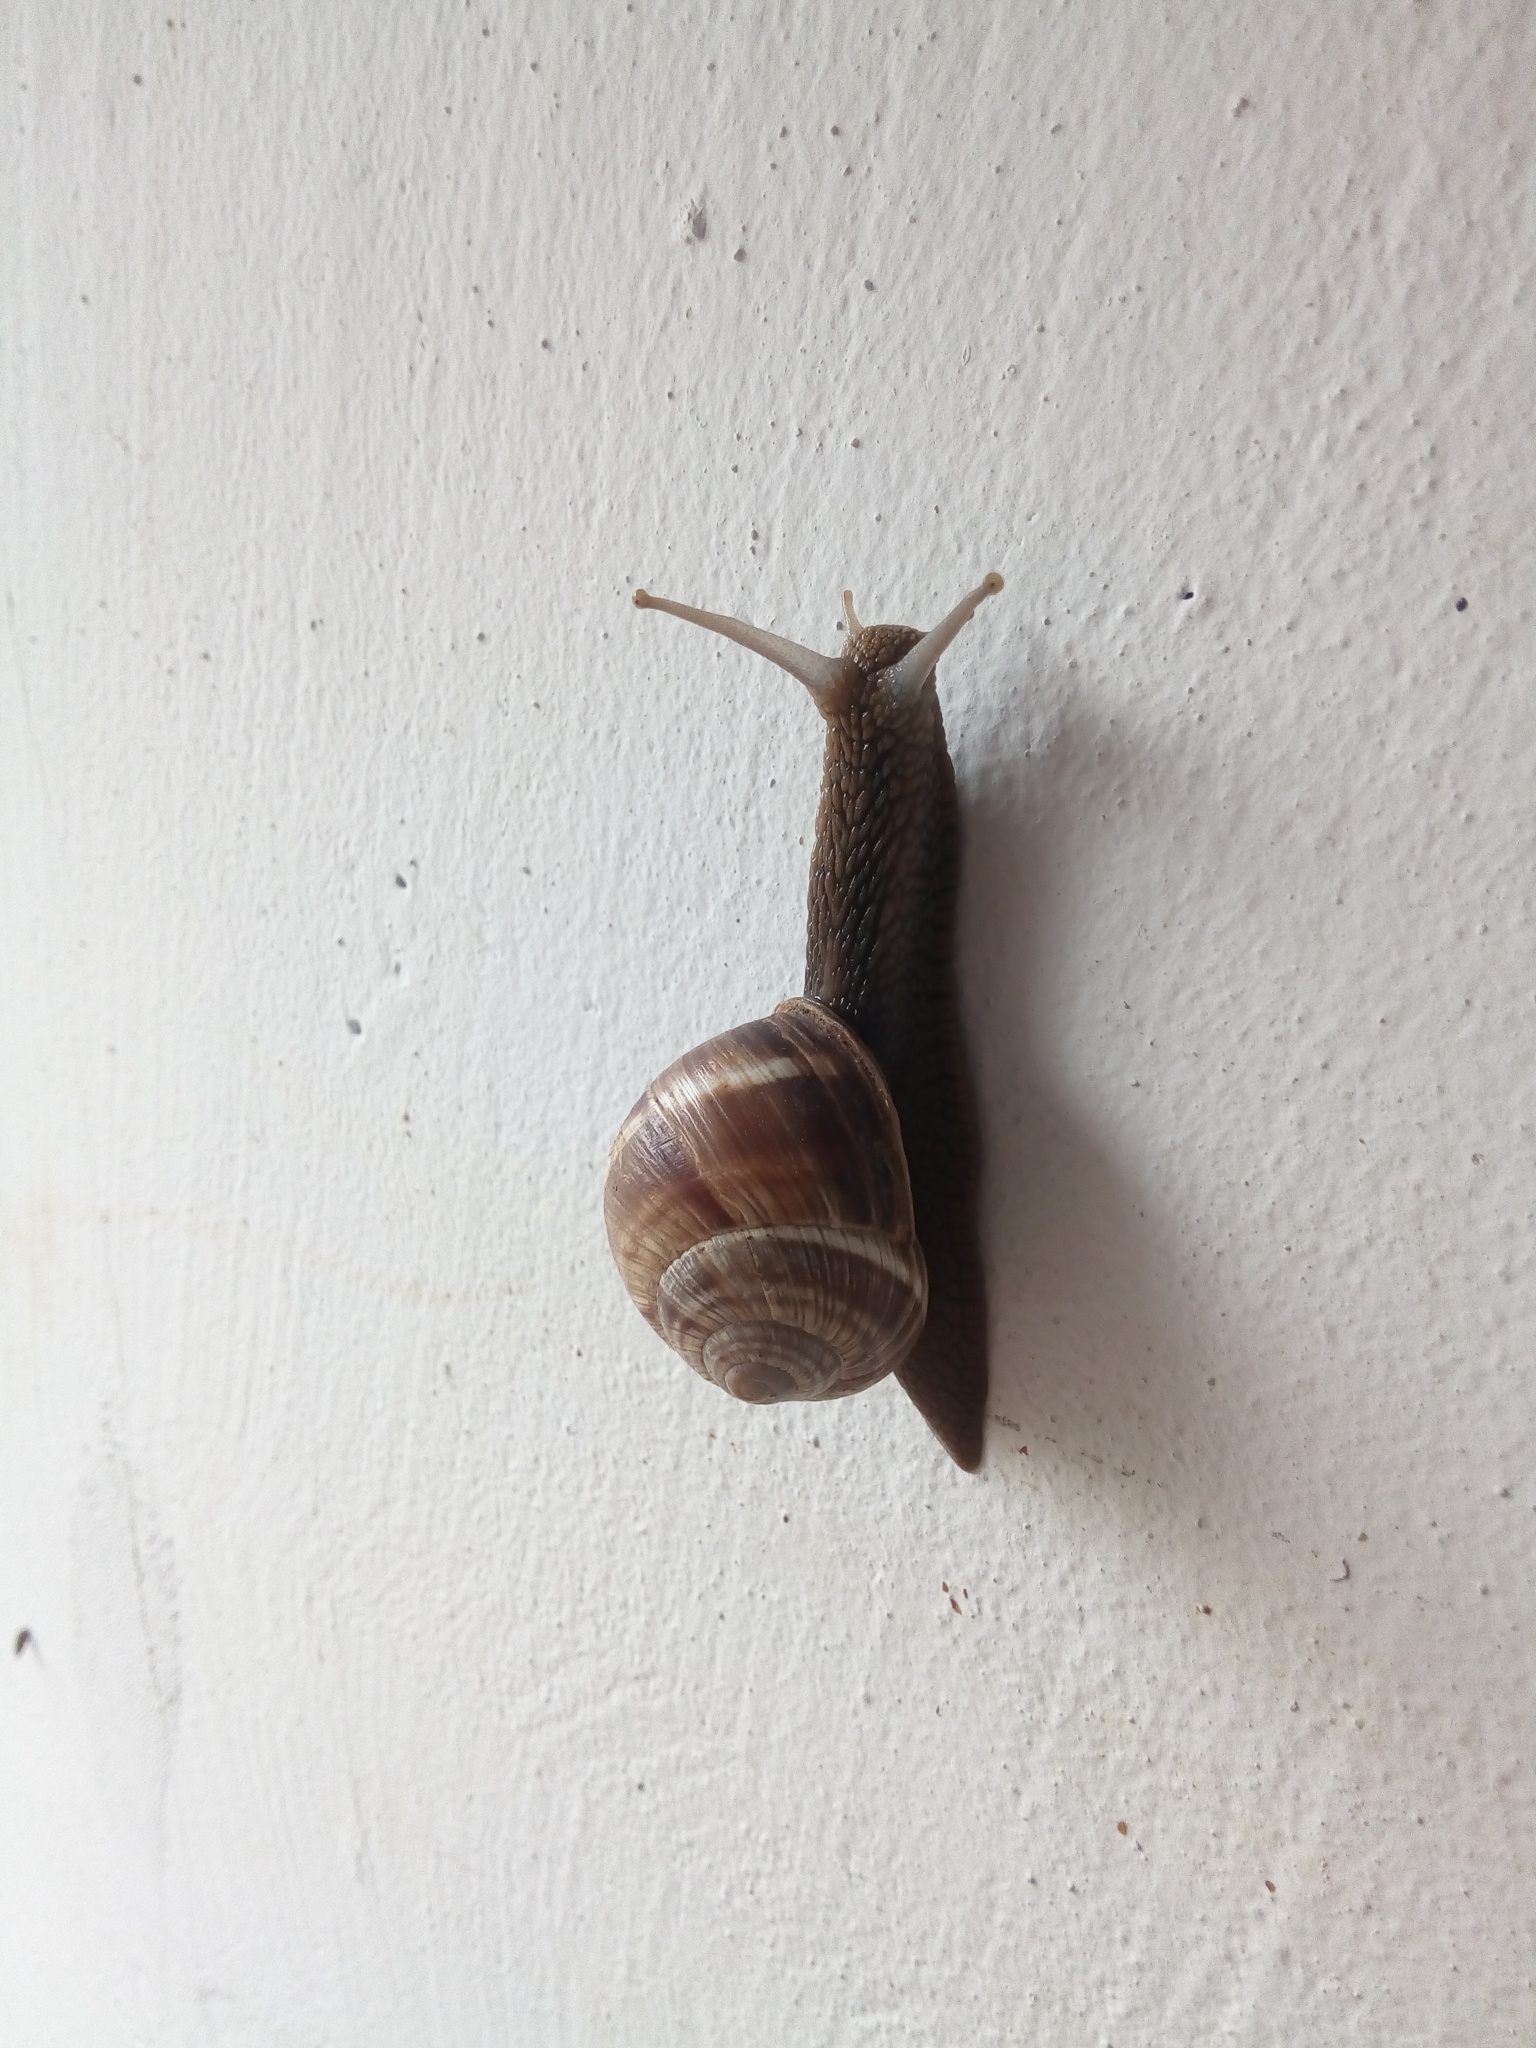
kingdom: Animalia
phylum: Mollusca
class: Gastropoda
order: Stylommatophora
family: Helicidae
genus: Helix
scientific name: Helix lucorum
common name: Turkish snail
